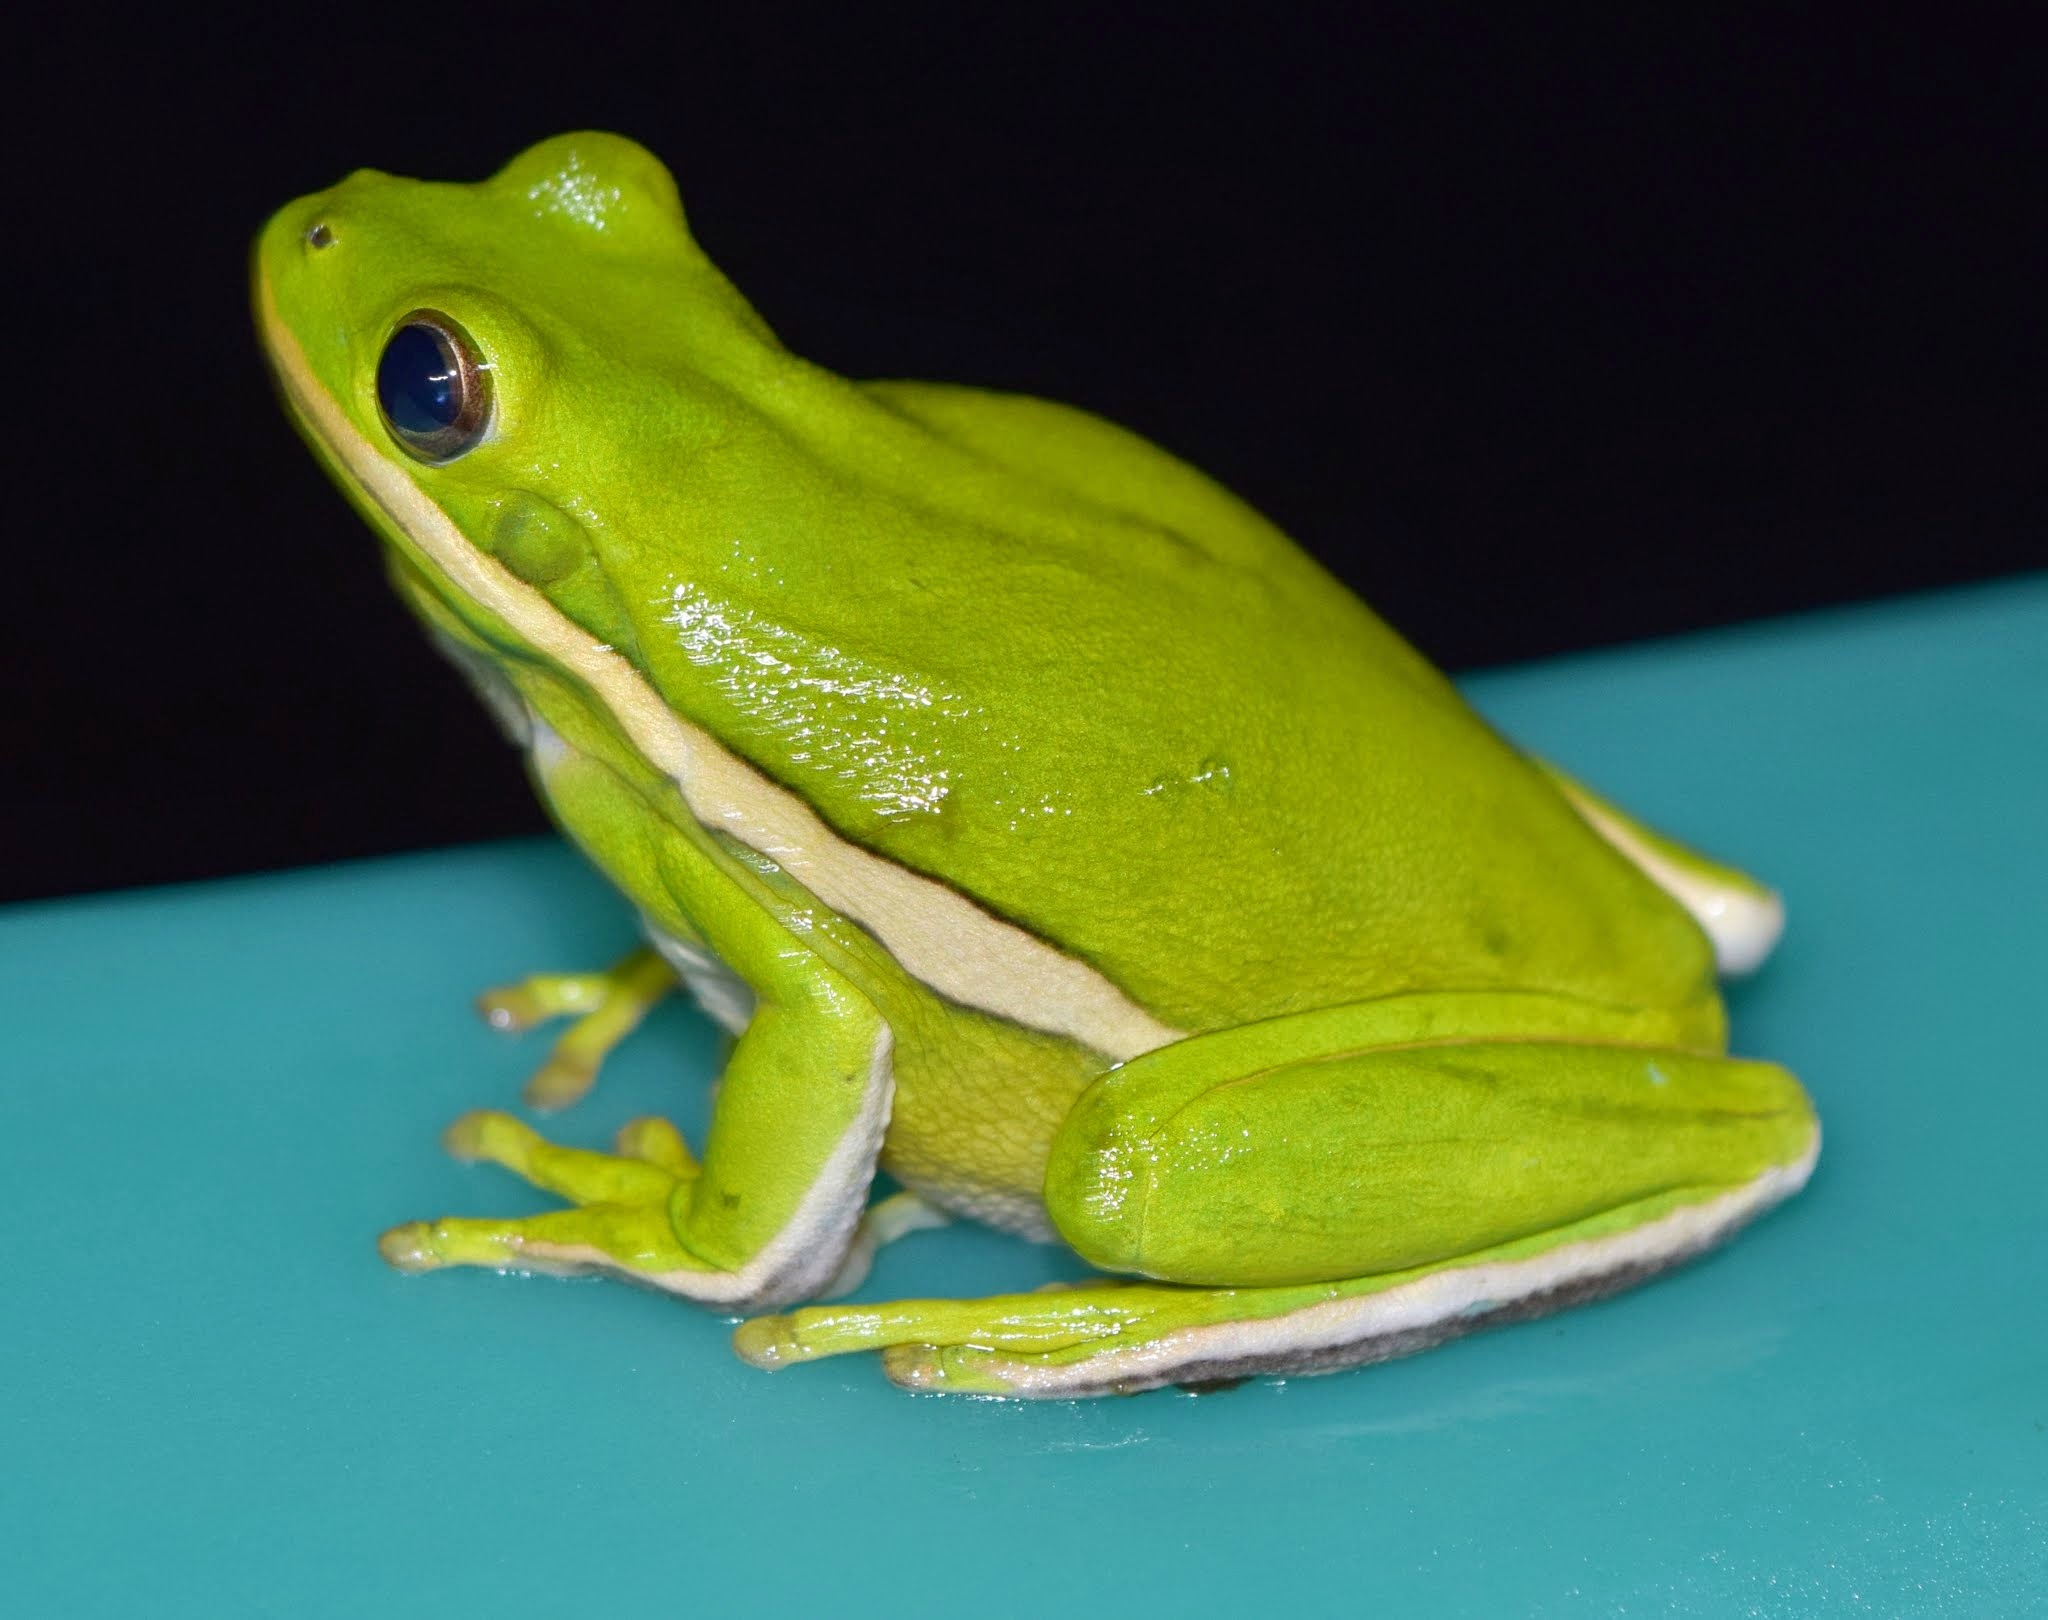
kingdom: Animalia
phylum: Chordata
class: Amphibia
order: Anura
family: Hylidae
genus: Dryophytes
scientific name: Dryophytes cinereus
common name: Green treefrog
